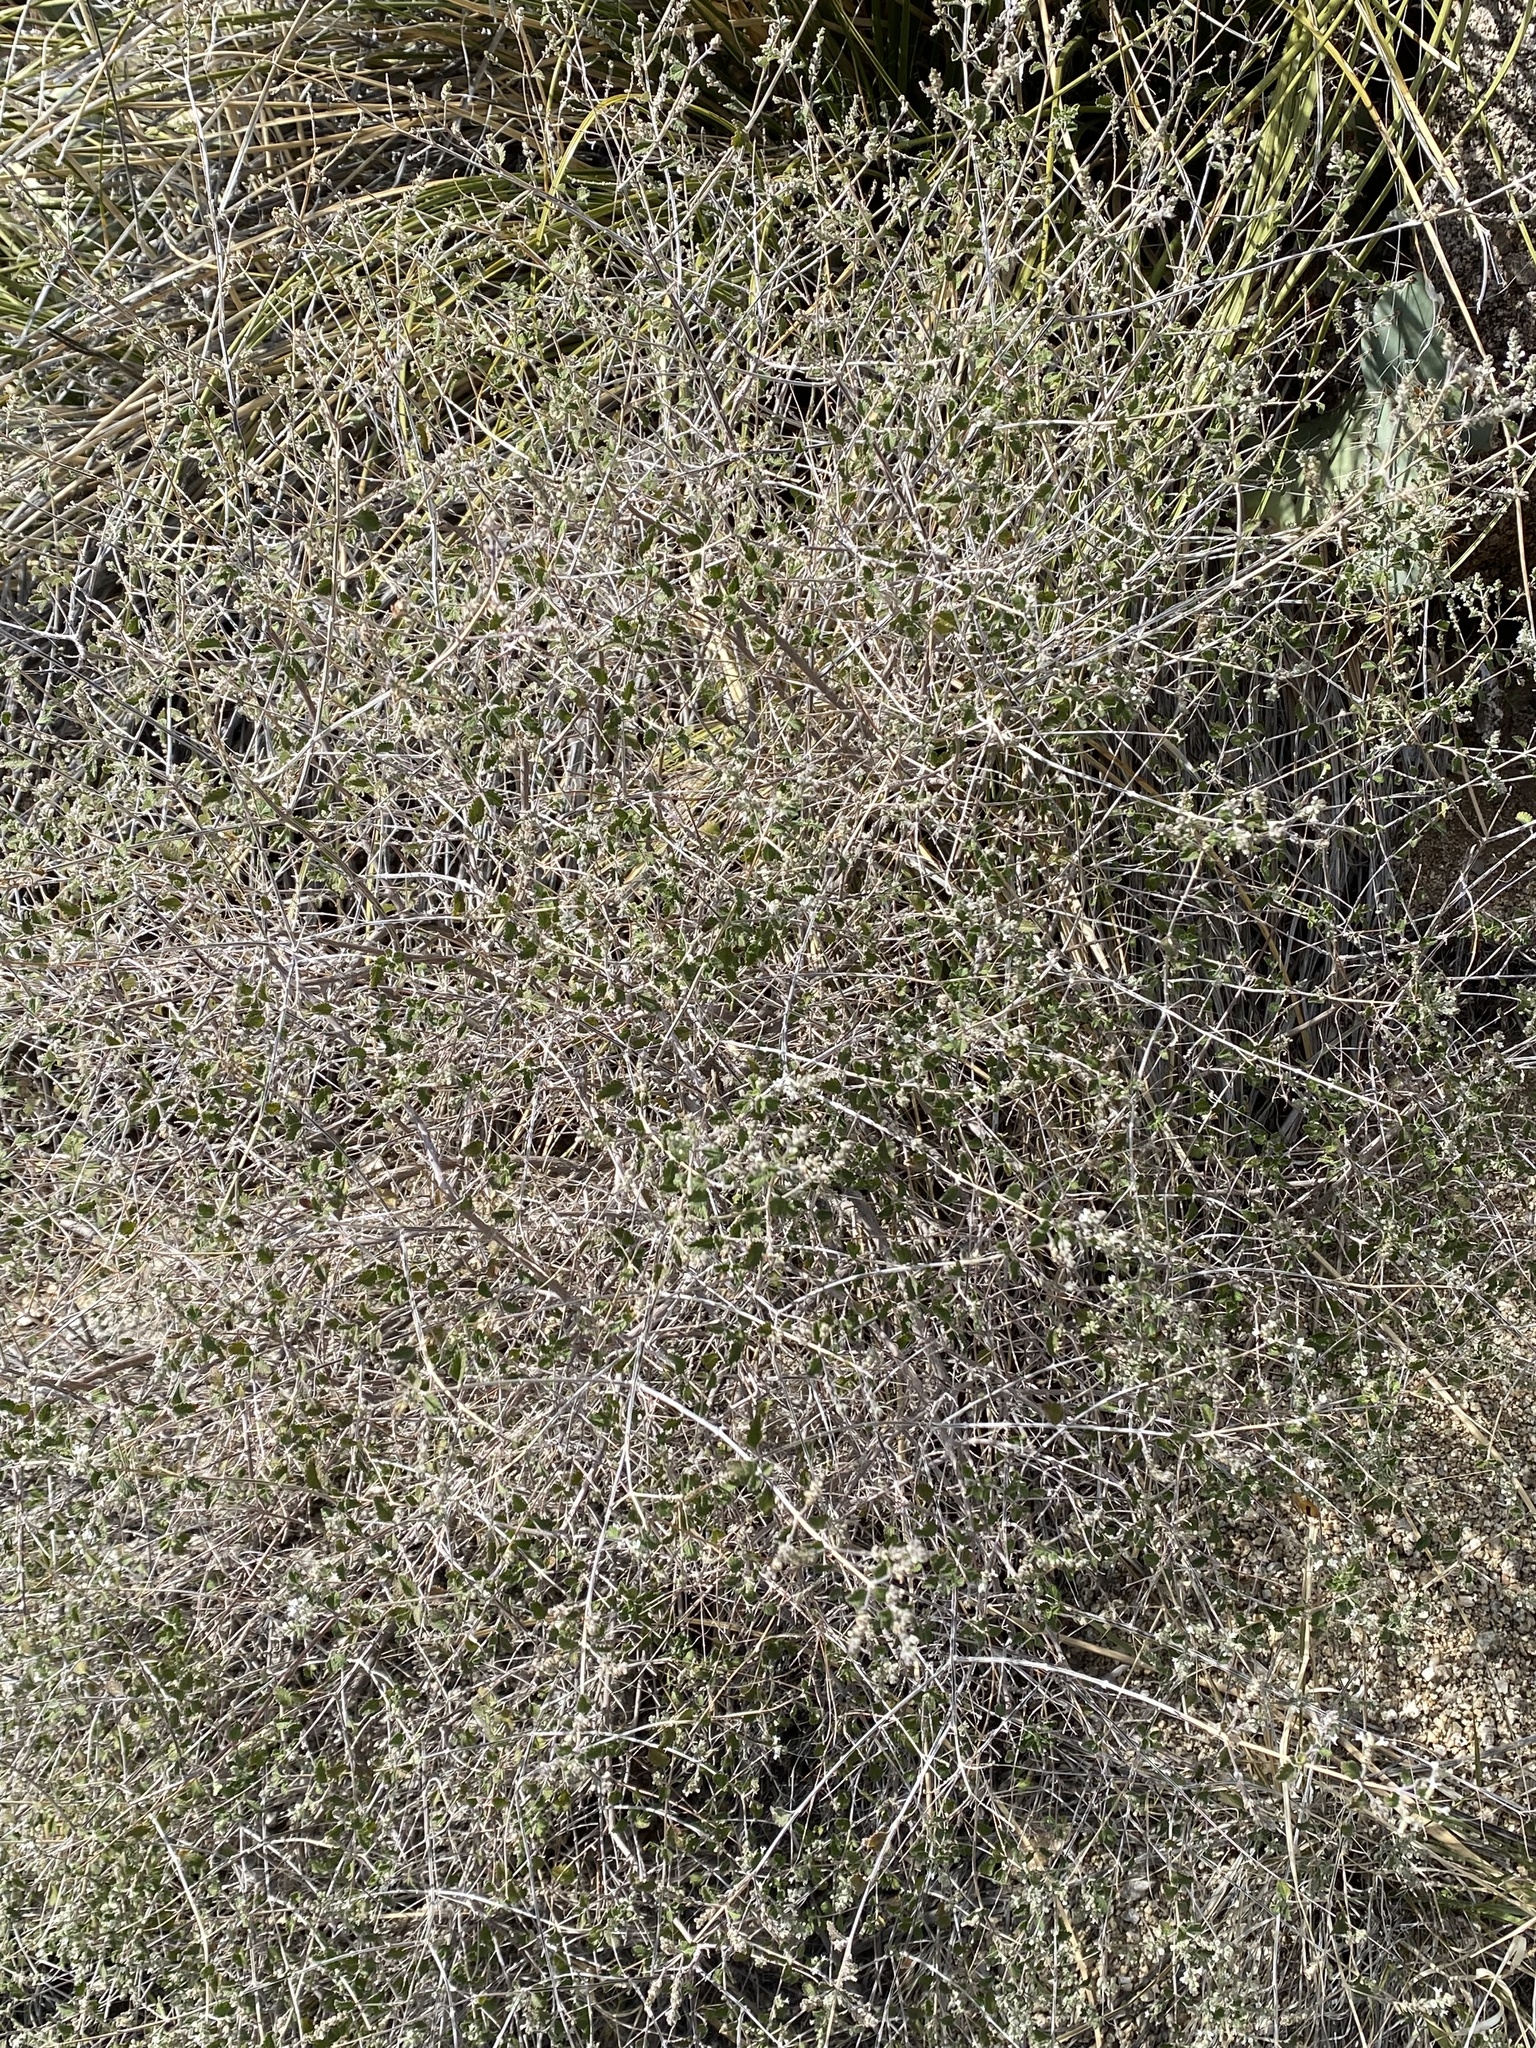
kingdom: Plantae
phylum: Tracheophyta
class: Magnoliopsida
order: Lamiales
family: Verbenaceae
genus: Aloysia
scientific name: Aloysia wrightii
